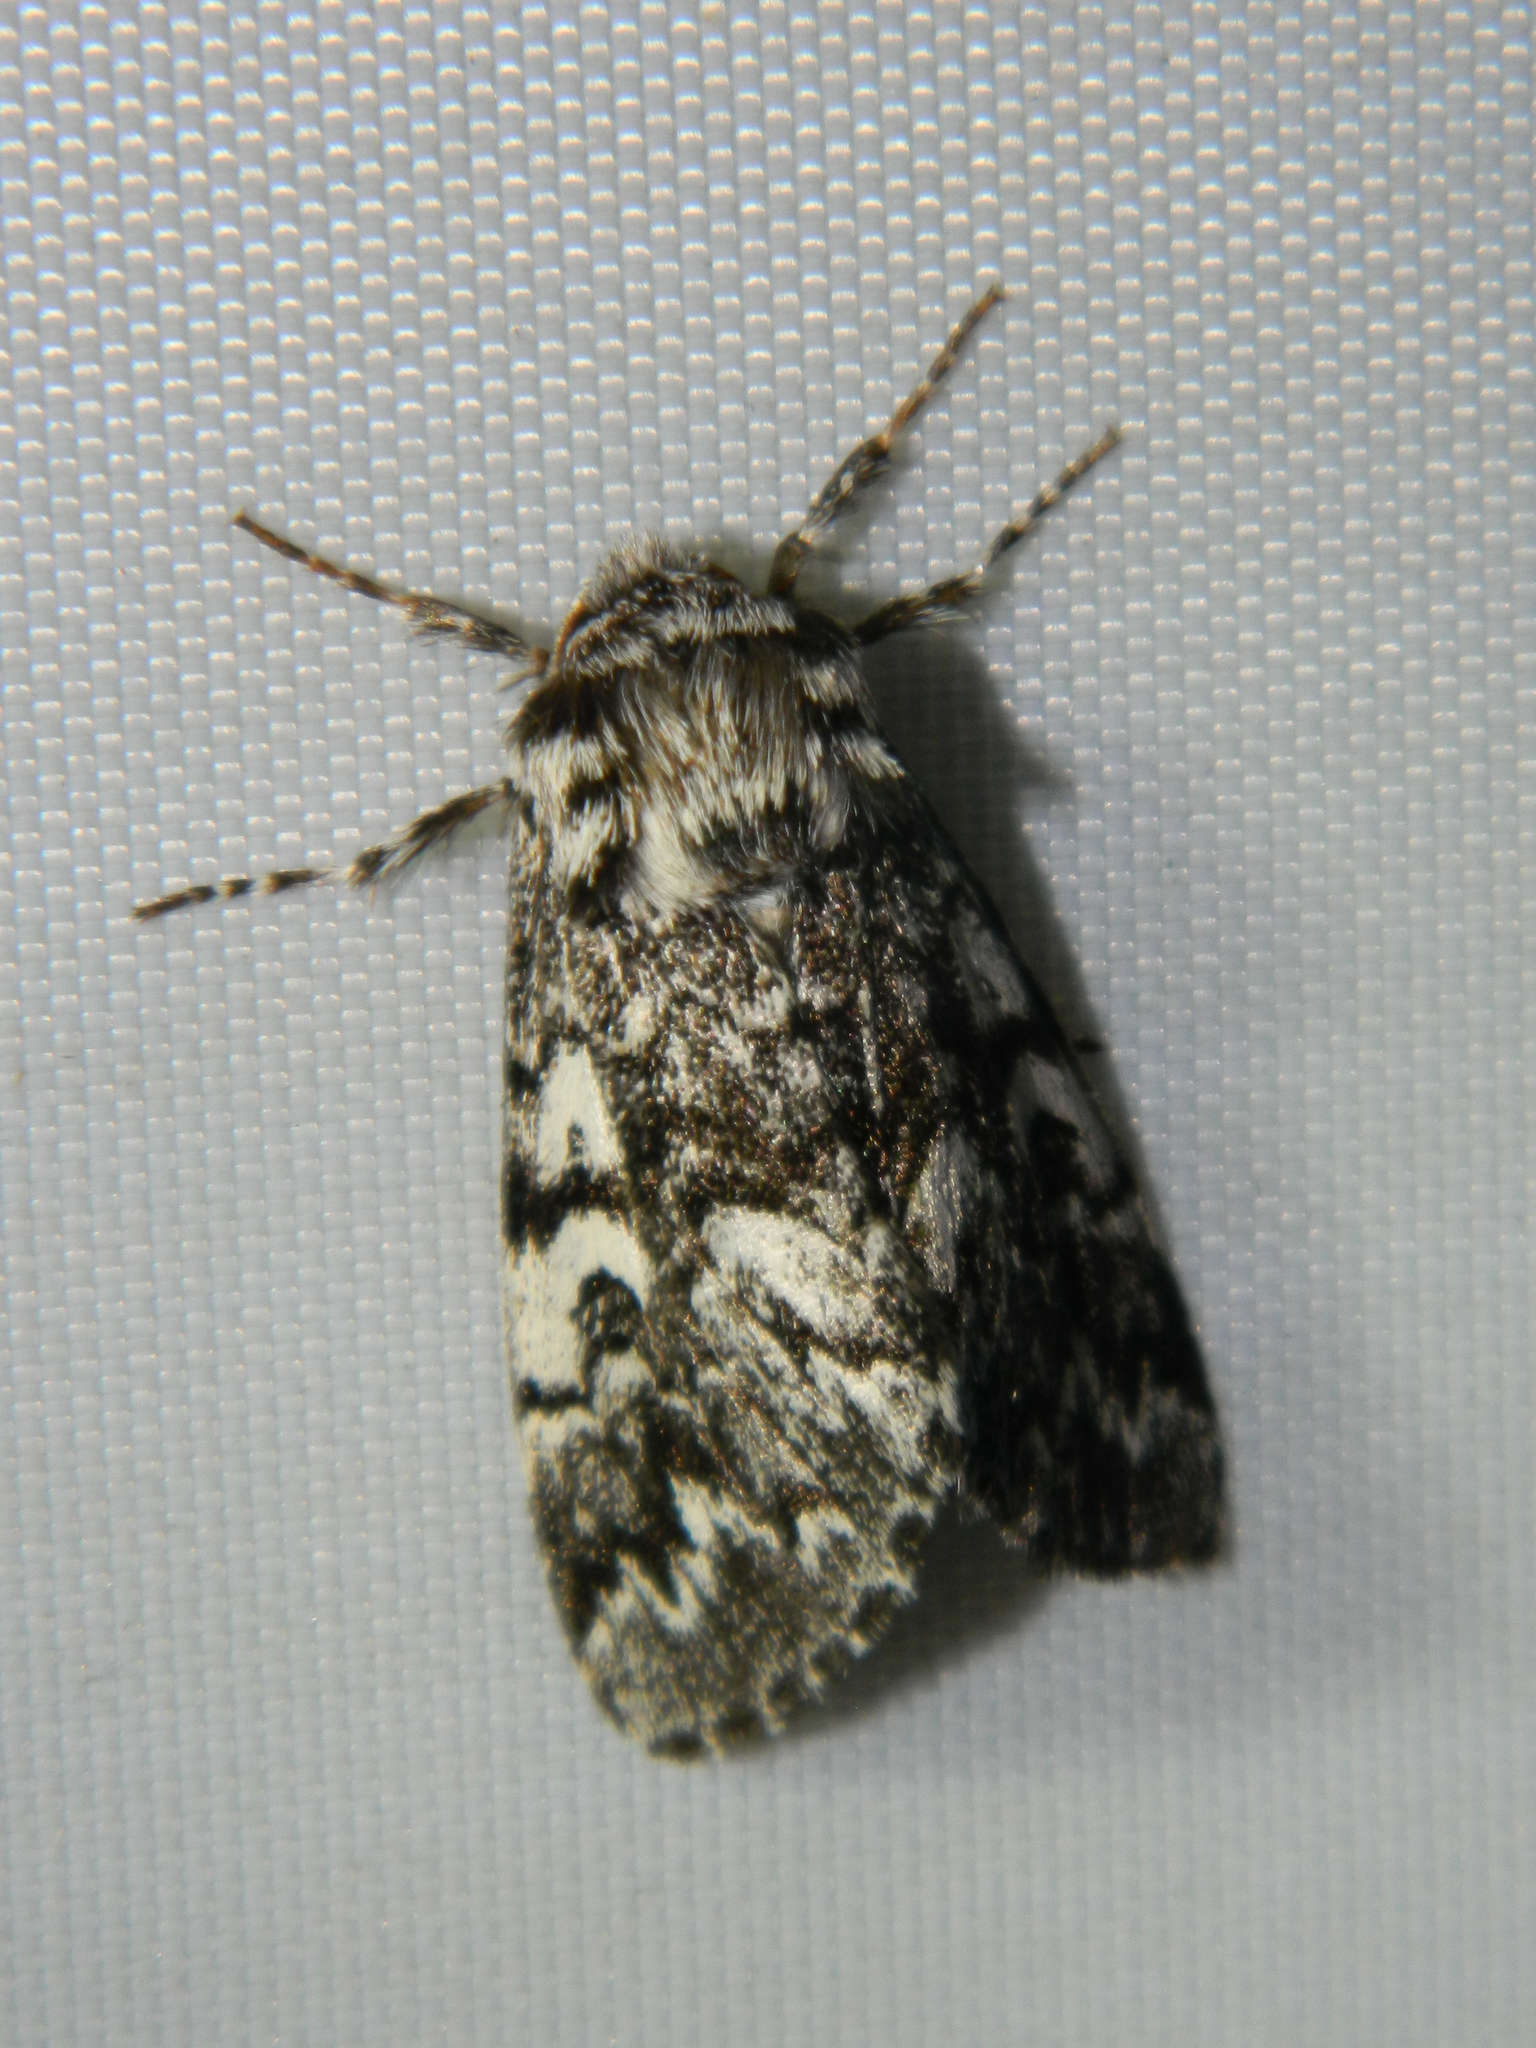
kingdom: Animalia
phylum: Arthropoda
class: Insecta
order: Lepidoptera
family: Noctuidae
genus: Panthea
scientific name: Panthea acronyctoides
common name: Black zigzag moth
